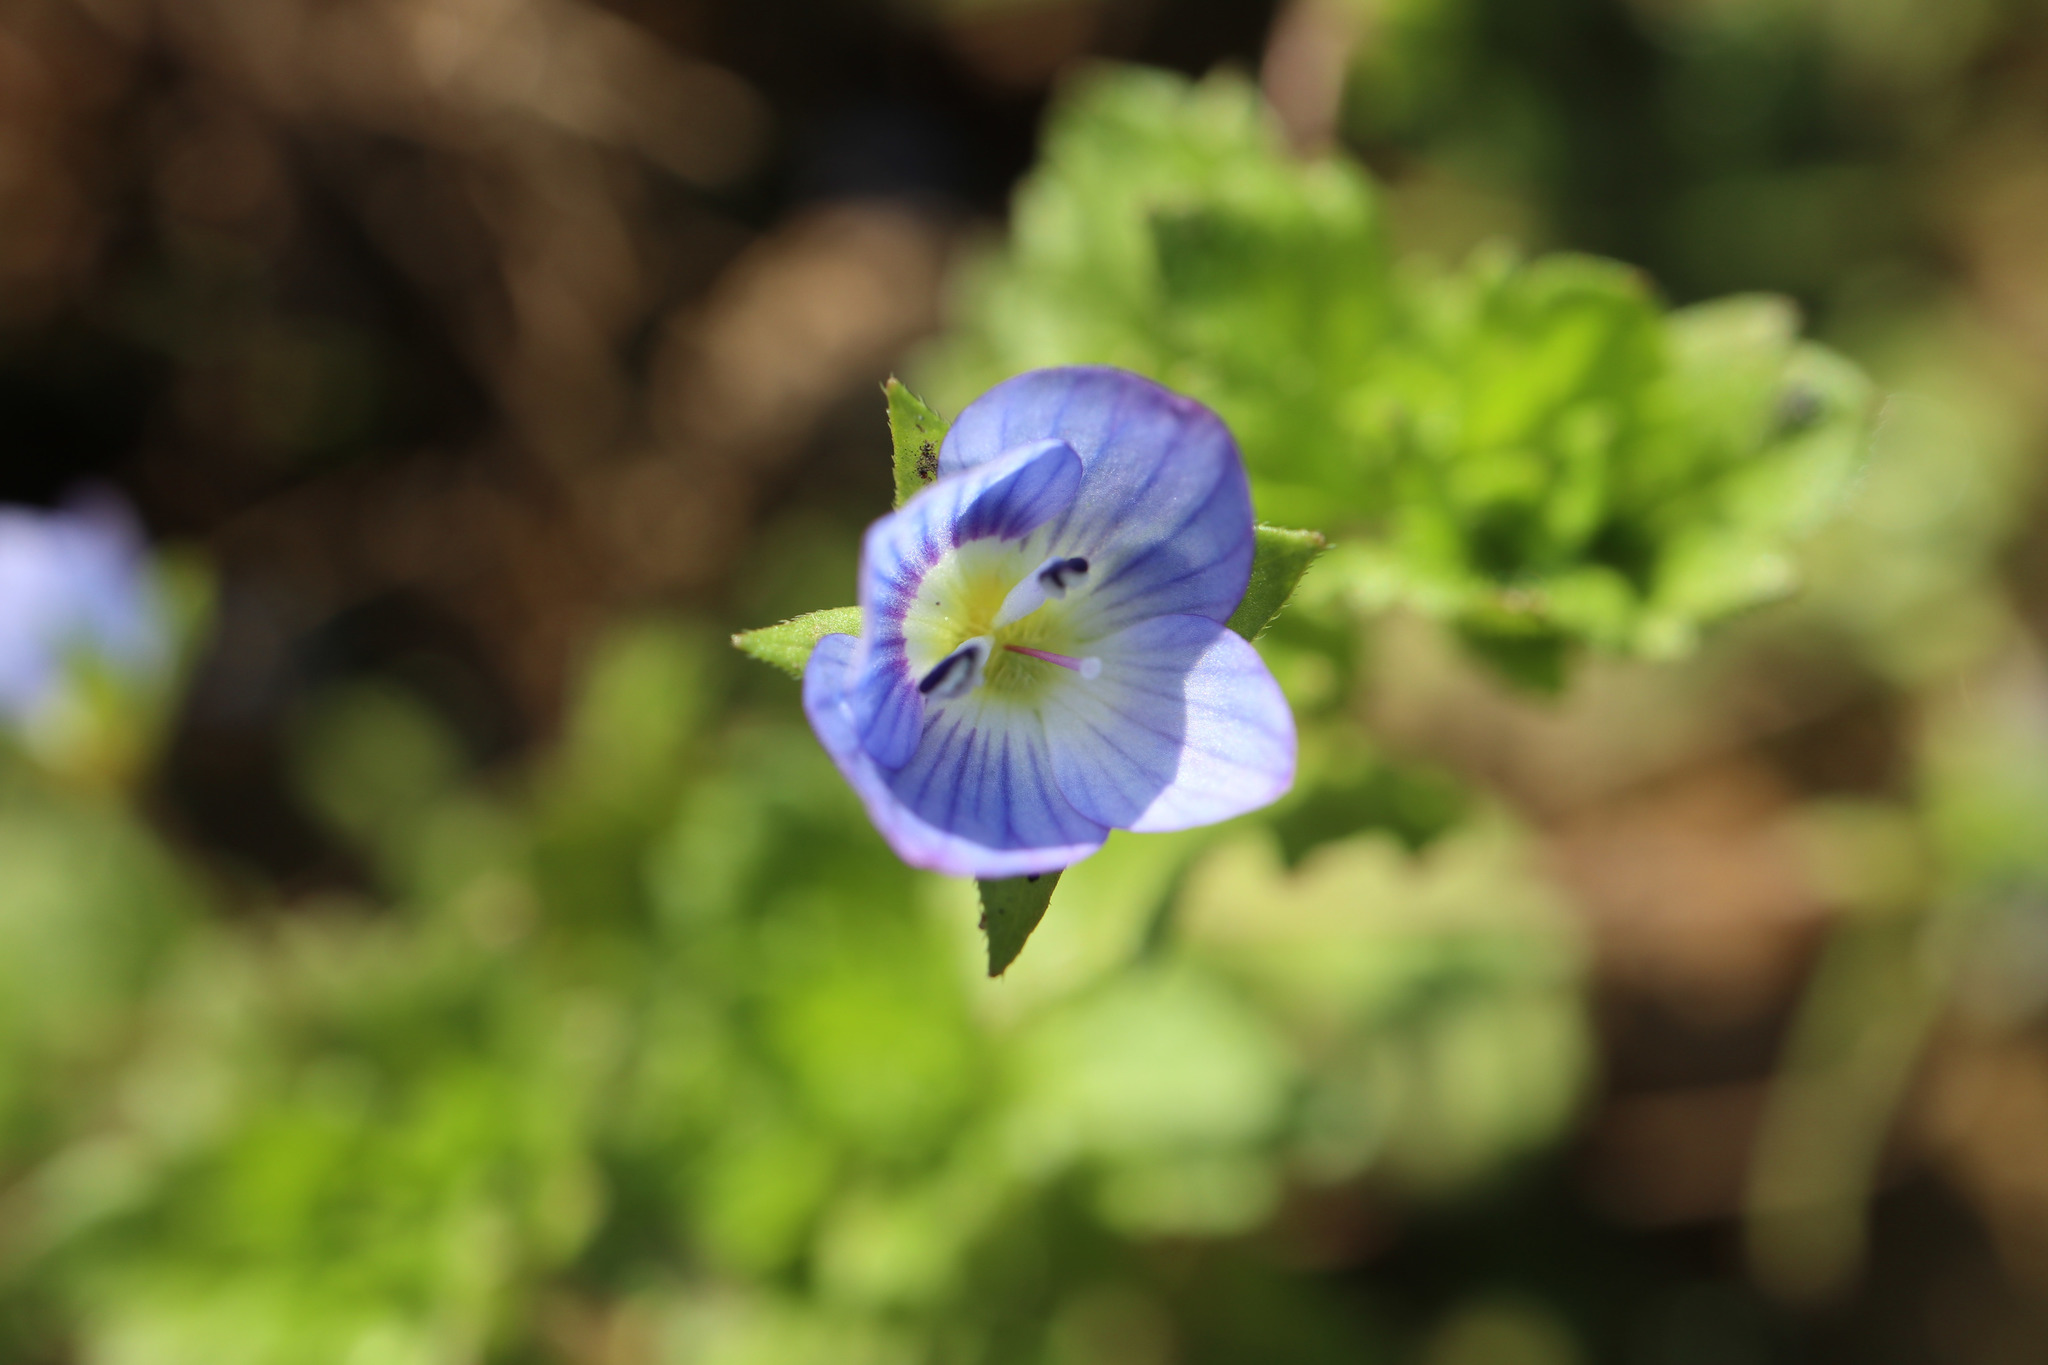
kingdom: Plantae
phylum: Tracheophyta
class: Magnoliopsida
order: Lamiales
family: Plantaginaceae
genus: Veronica
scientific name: Veronica persica
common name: Common field-speedwell
